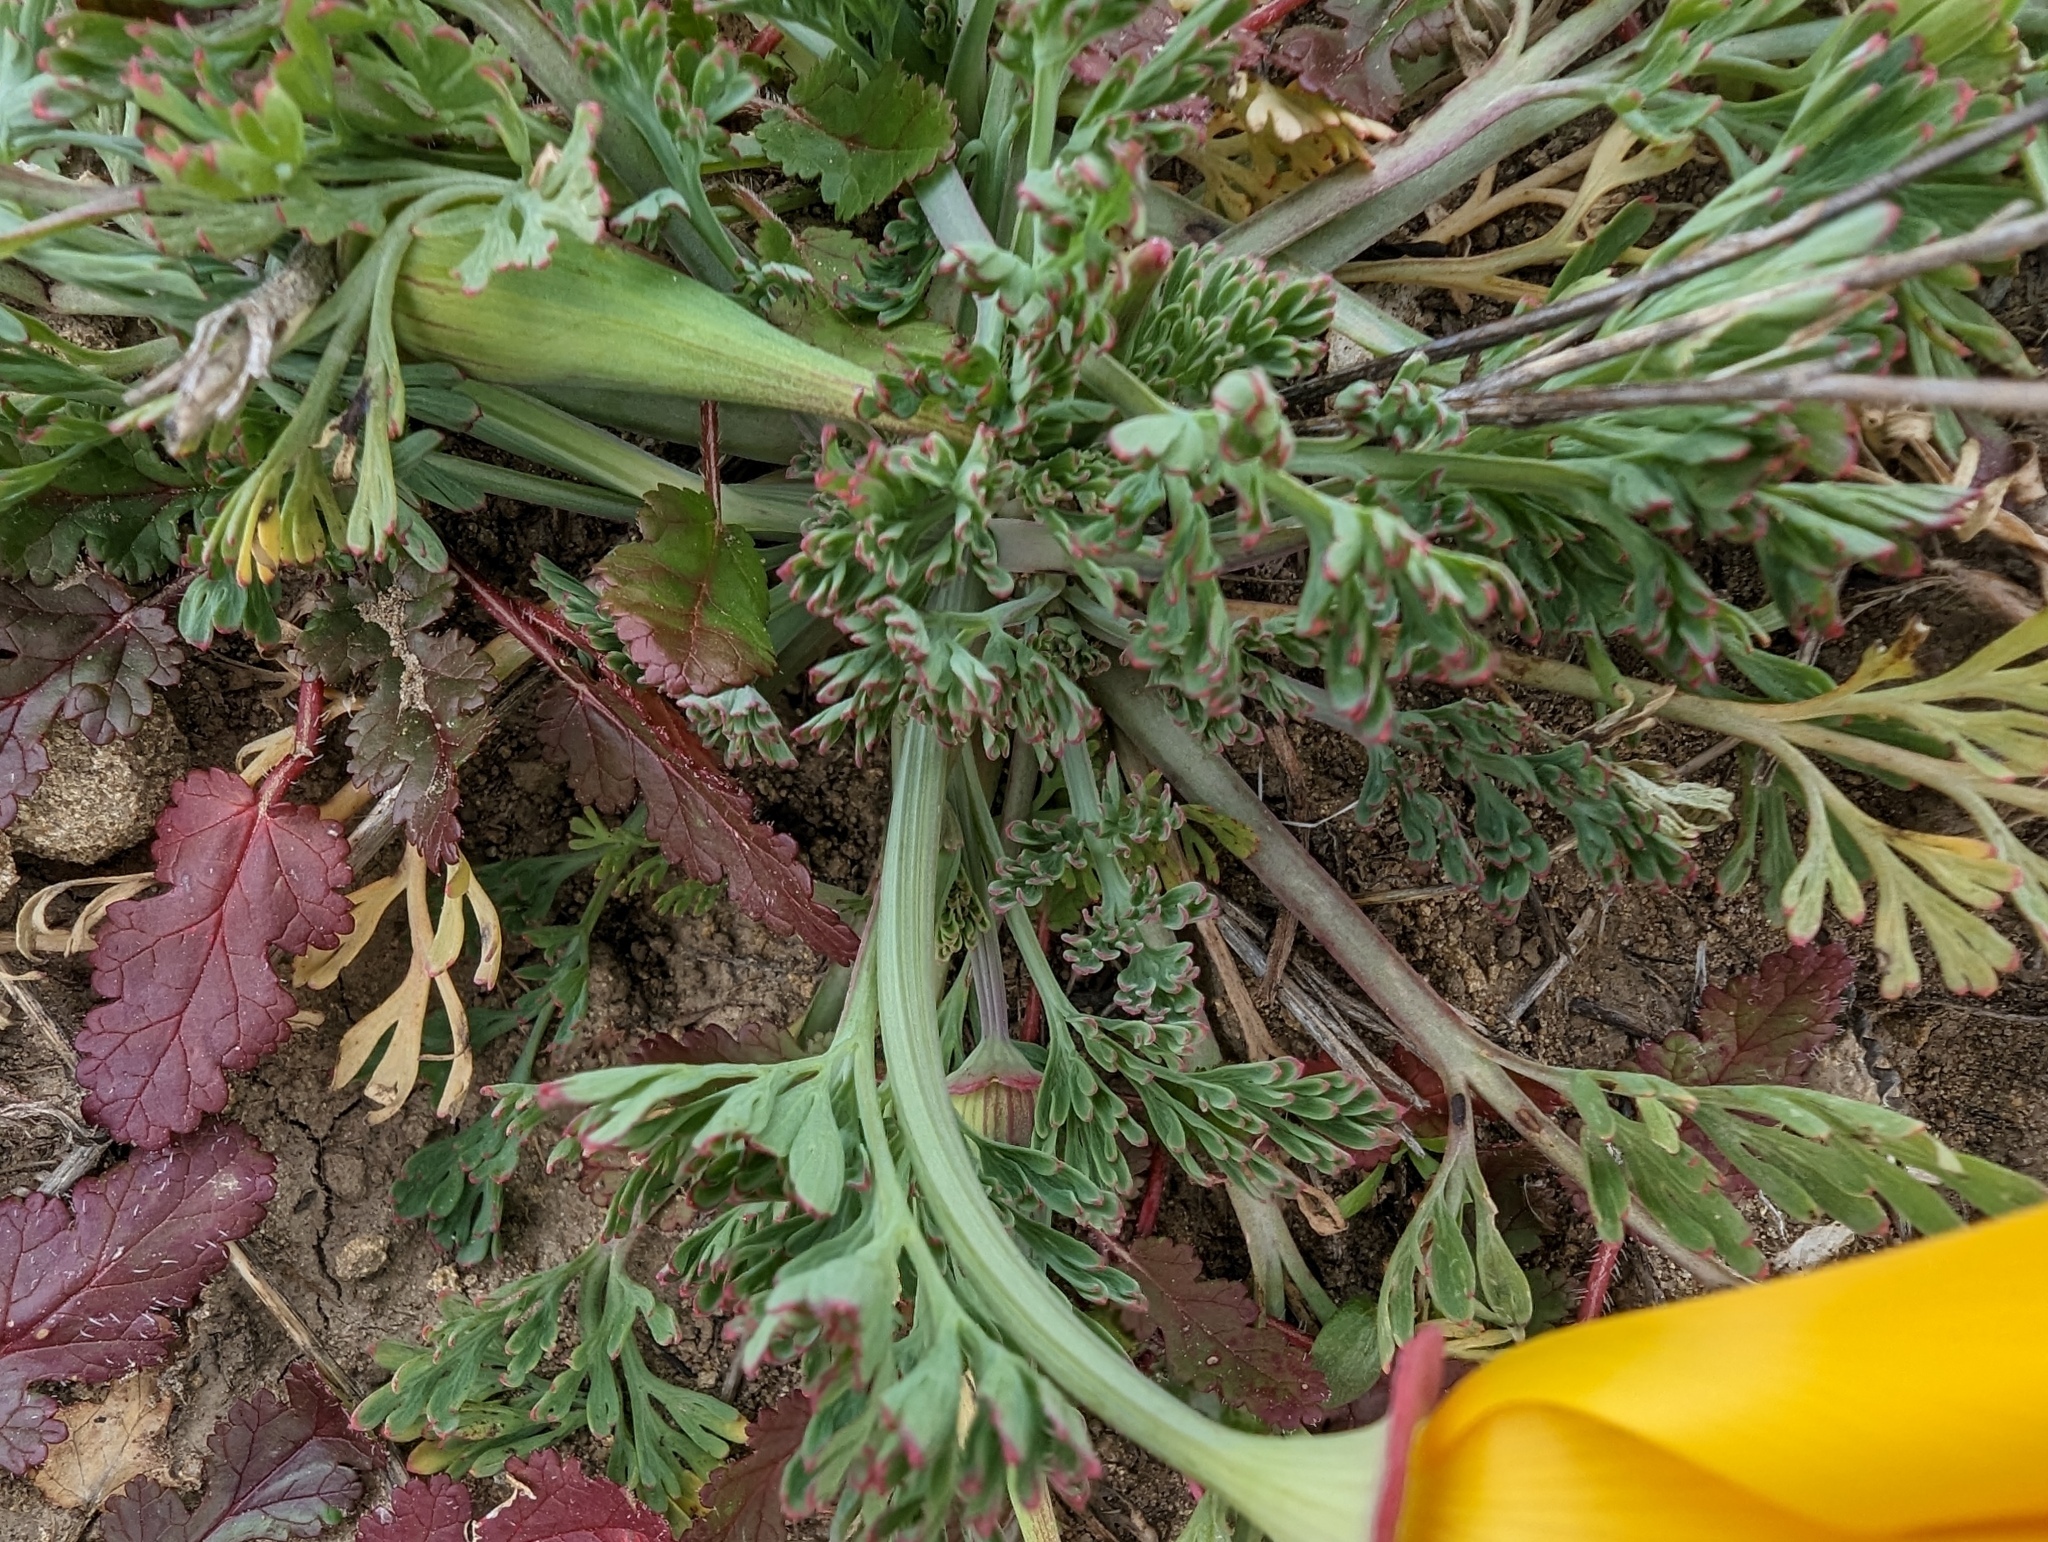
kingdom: Plantae
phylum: Tracheophyta
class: Magnoliopsida
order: Ranunculales
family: Papaveraceae
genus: Eschscholzia
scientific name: Eschscholzia californica
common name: California poppy
